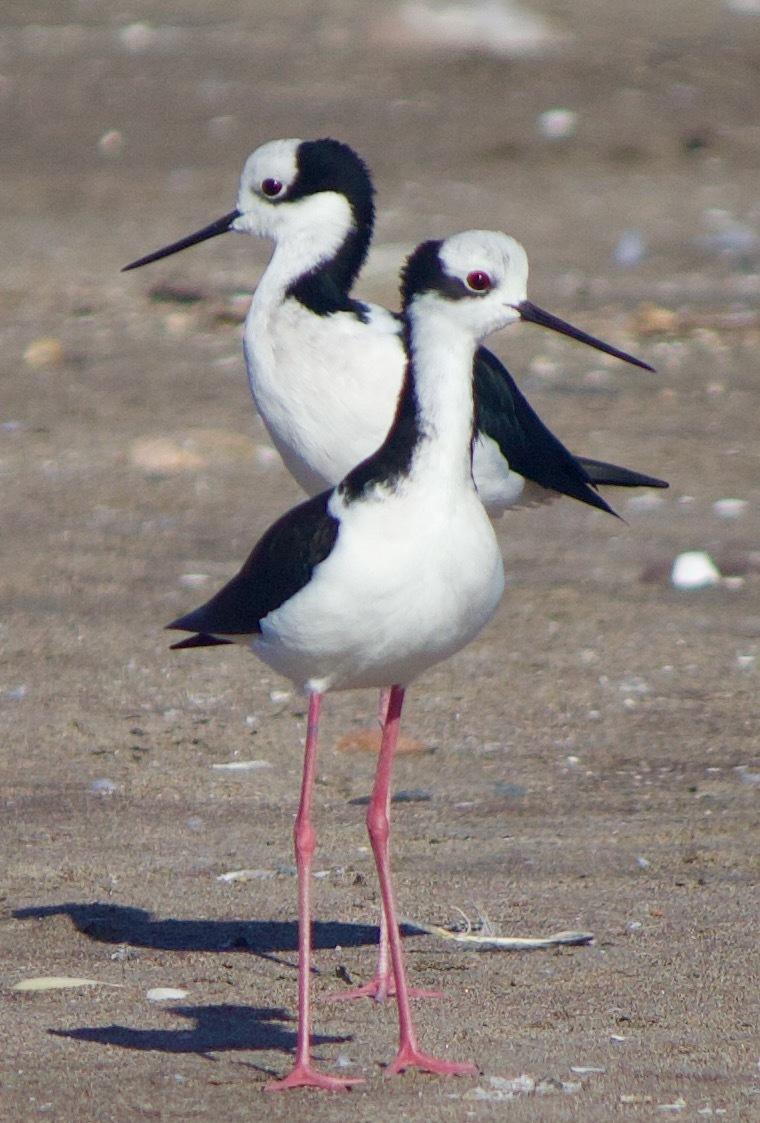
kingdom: Animalia
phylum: Chordata
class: Aves
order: Charadriiformes
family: Recurvirostridae
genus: Himantopus
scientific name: Himantopus mexicanus
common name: Black-necked stilt
